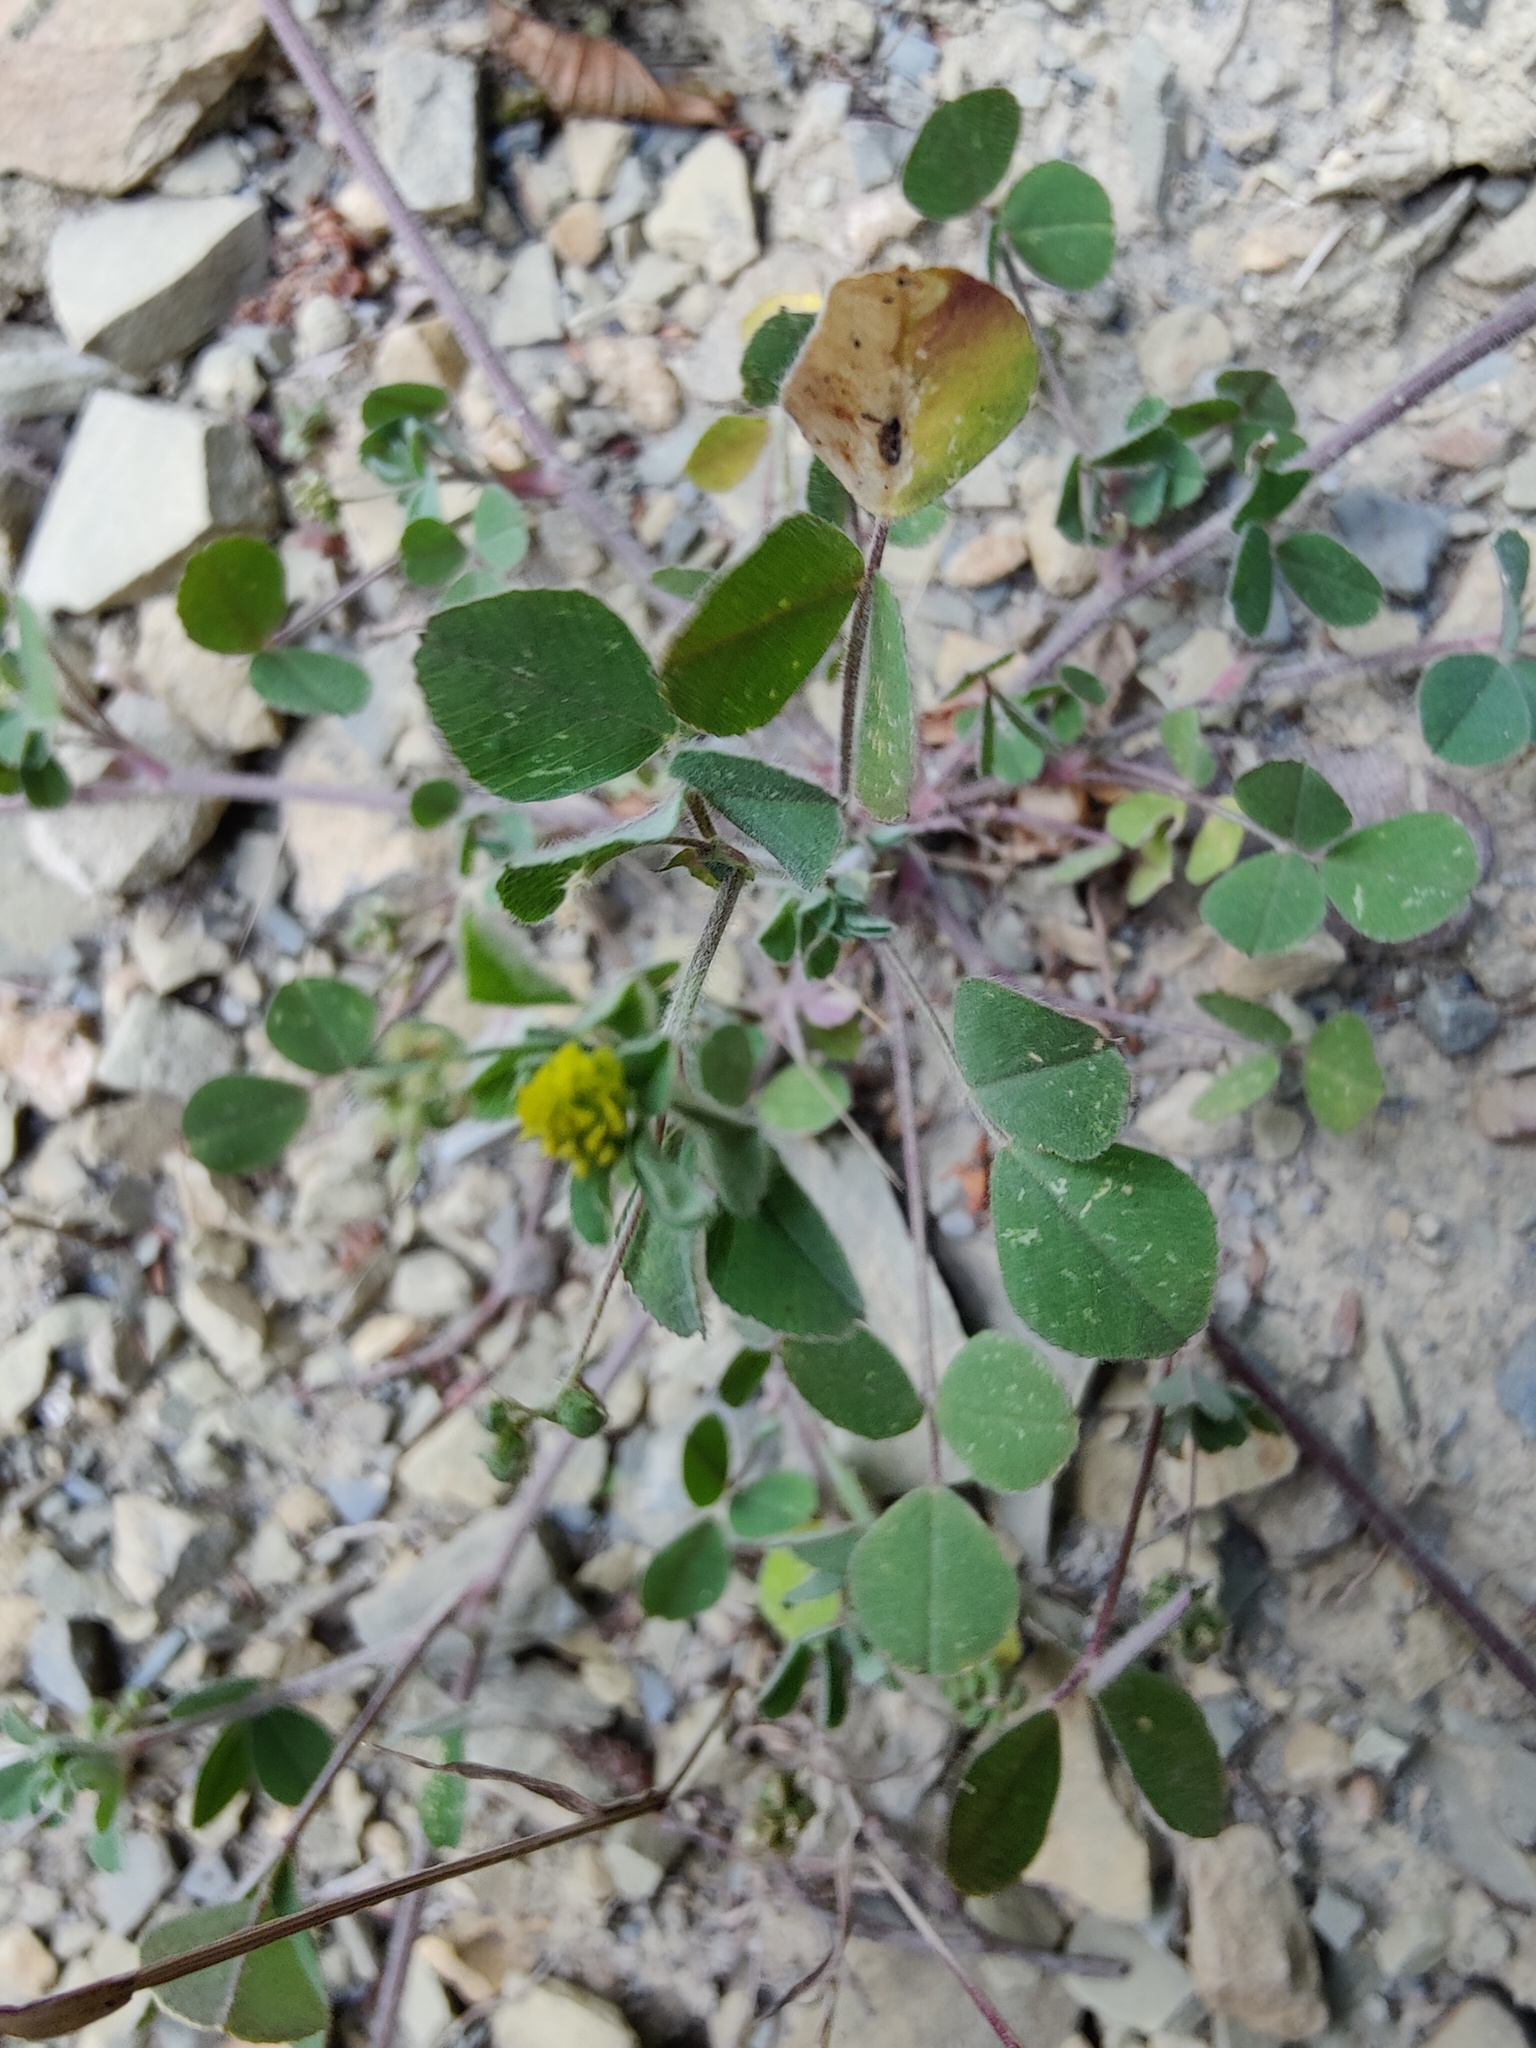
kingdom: Plantae
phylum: Tracheophyta
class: Magnoliopsida
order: Fabales
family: Fabaceae
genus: Medicago
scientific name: Medicago lupulina
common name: Black medick
